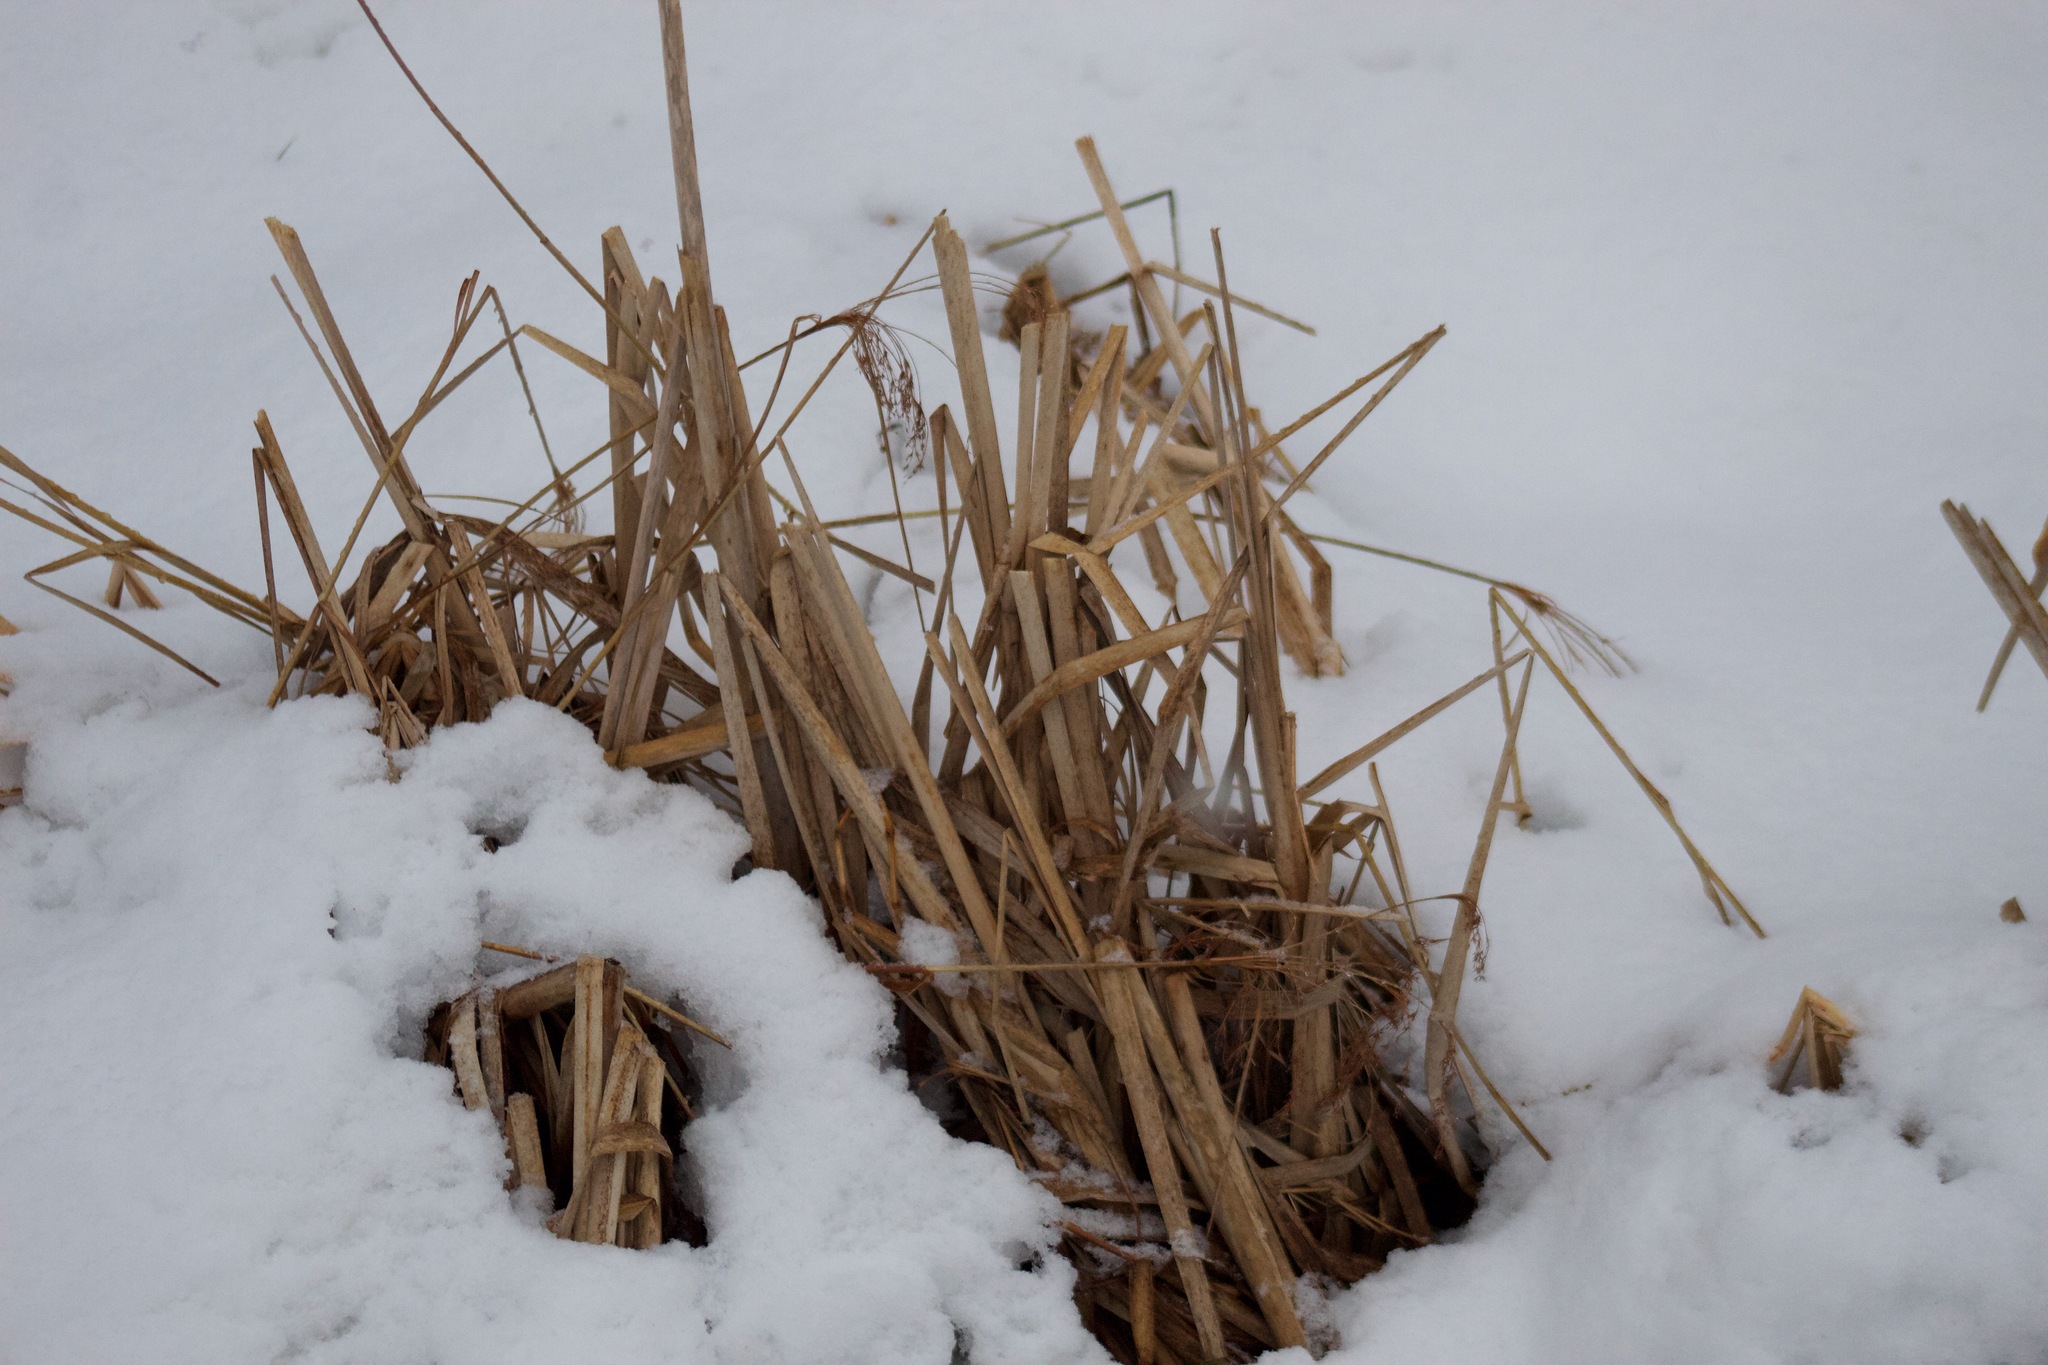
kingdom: Plantae
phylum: Tracheophyta
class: Liliopsida
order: Poales
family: Typhaceae
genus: Typha
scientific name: Typha latifolia
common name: Broadleaf cattail
